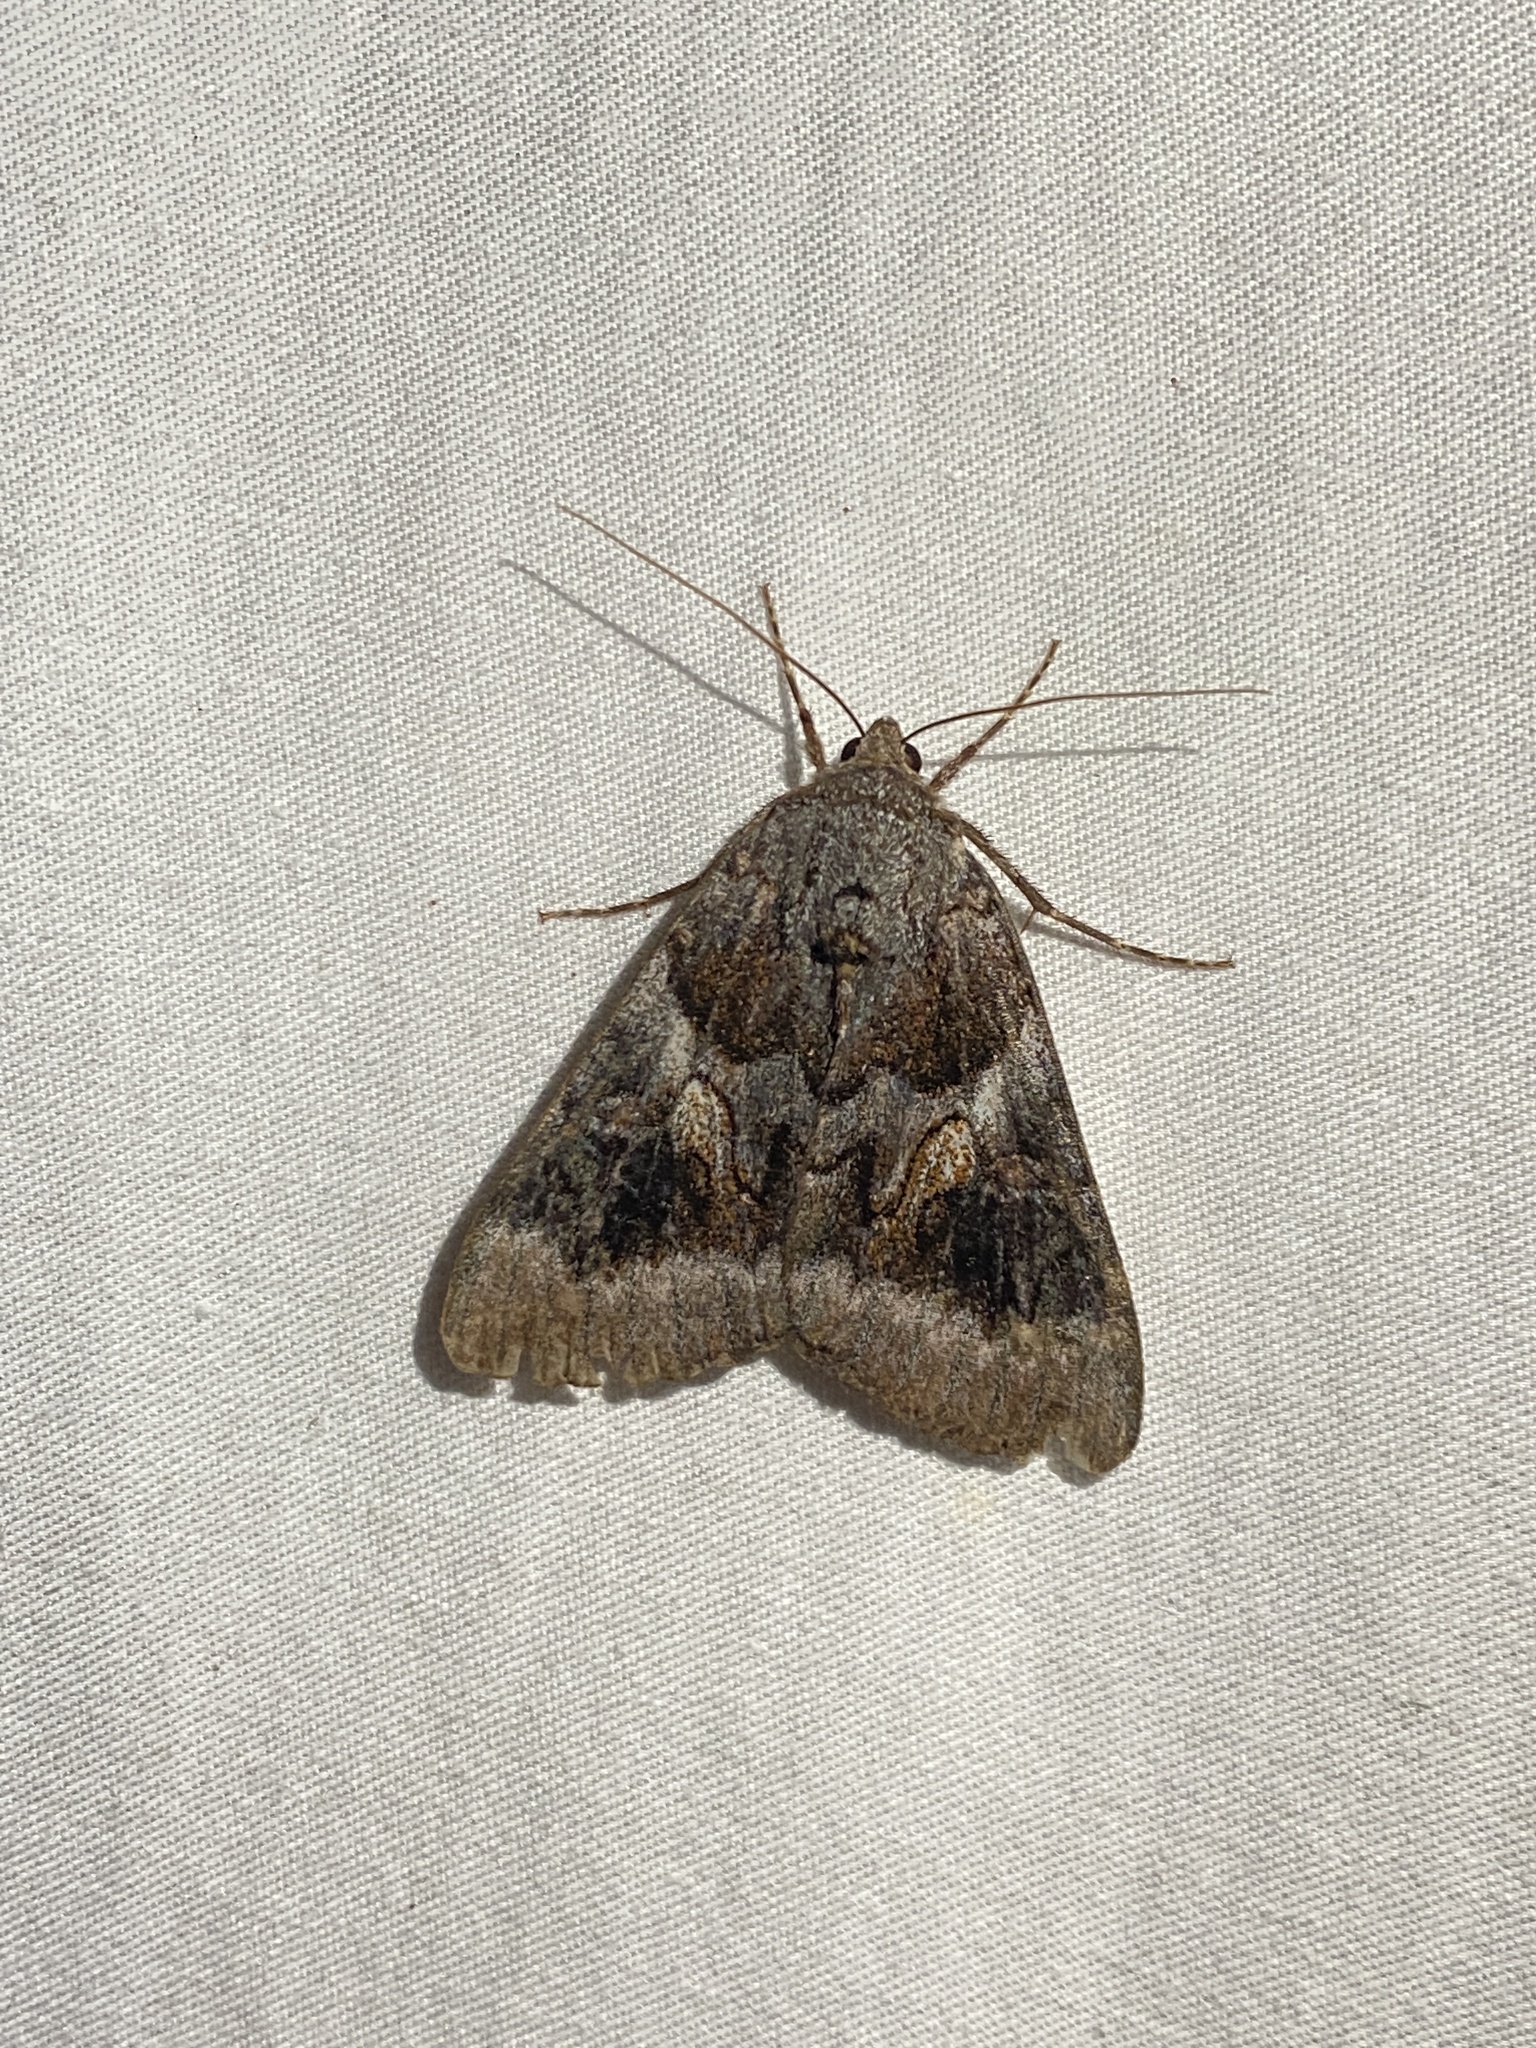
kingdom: Animalia
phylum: Arthropoda
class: Insecta
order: Lepidoptera
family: Erebidae
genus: Catocala
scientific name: Catocala badia
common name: Bay underwing
